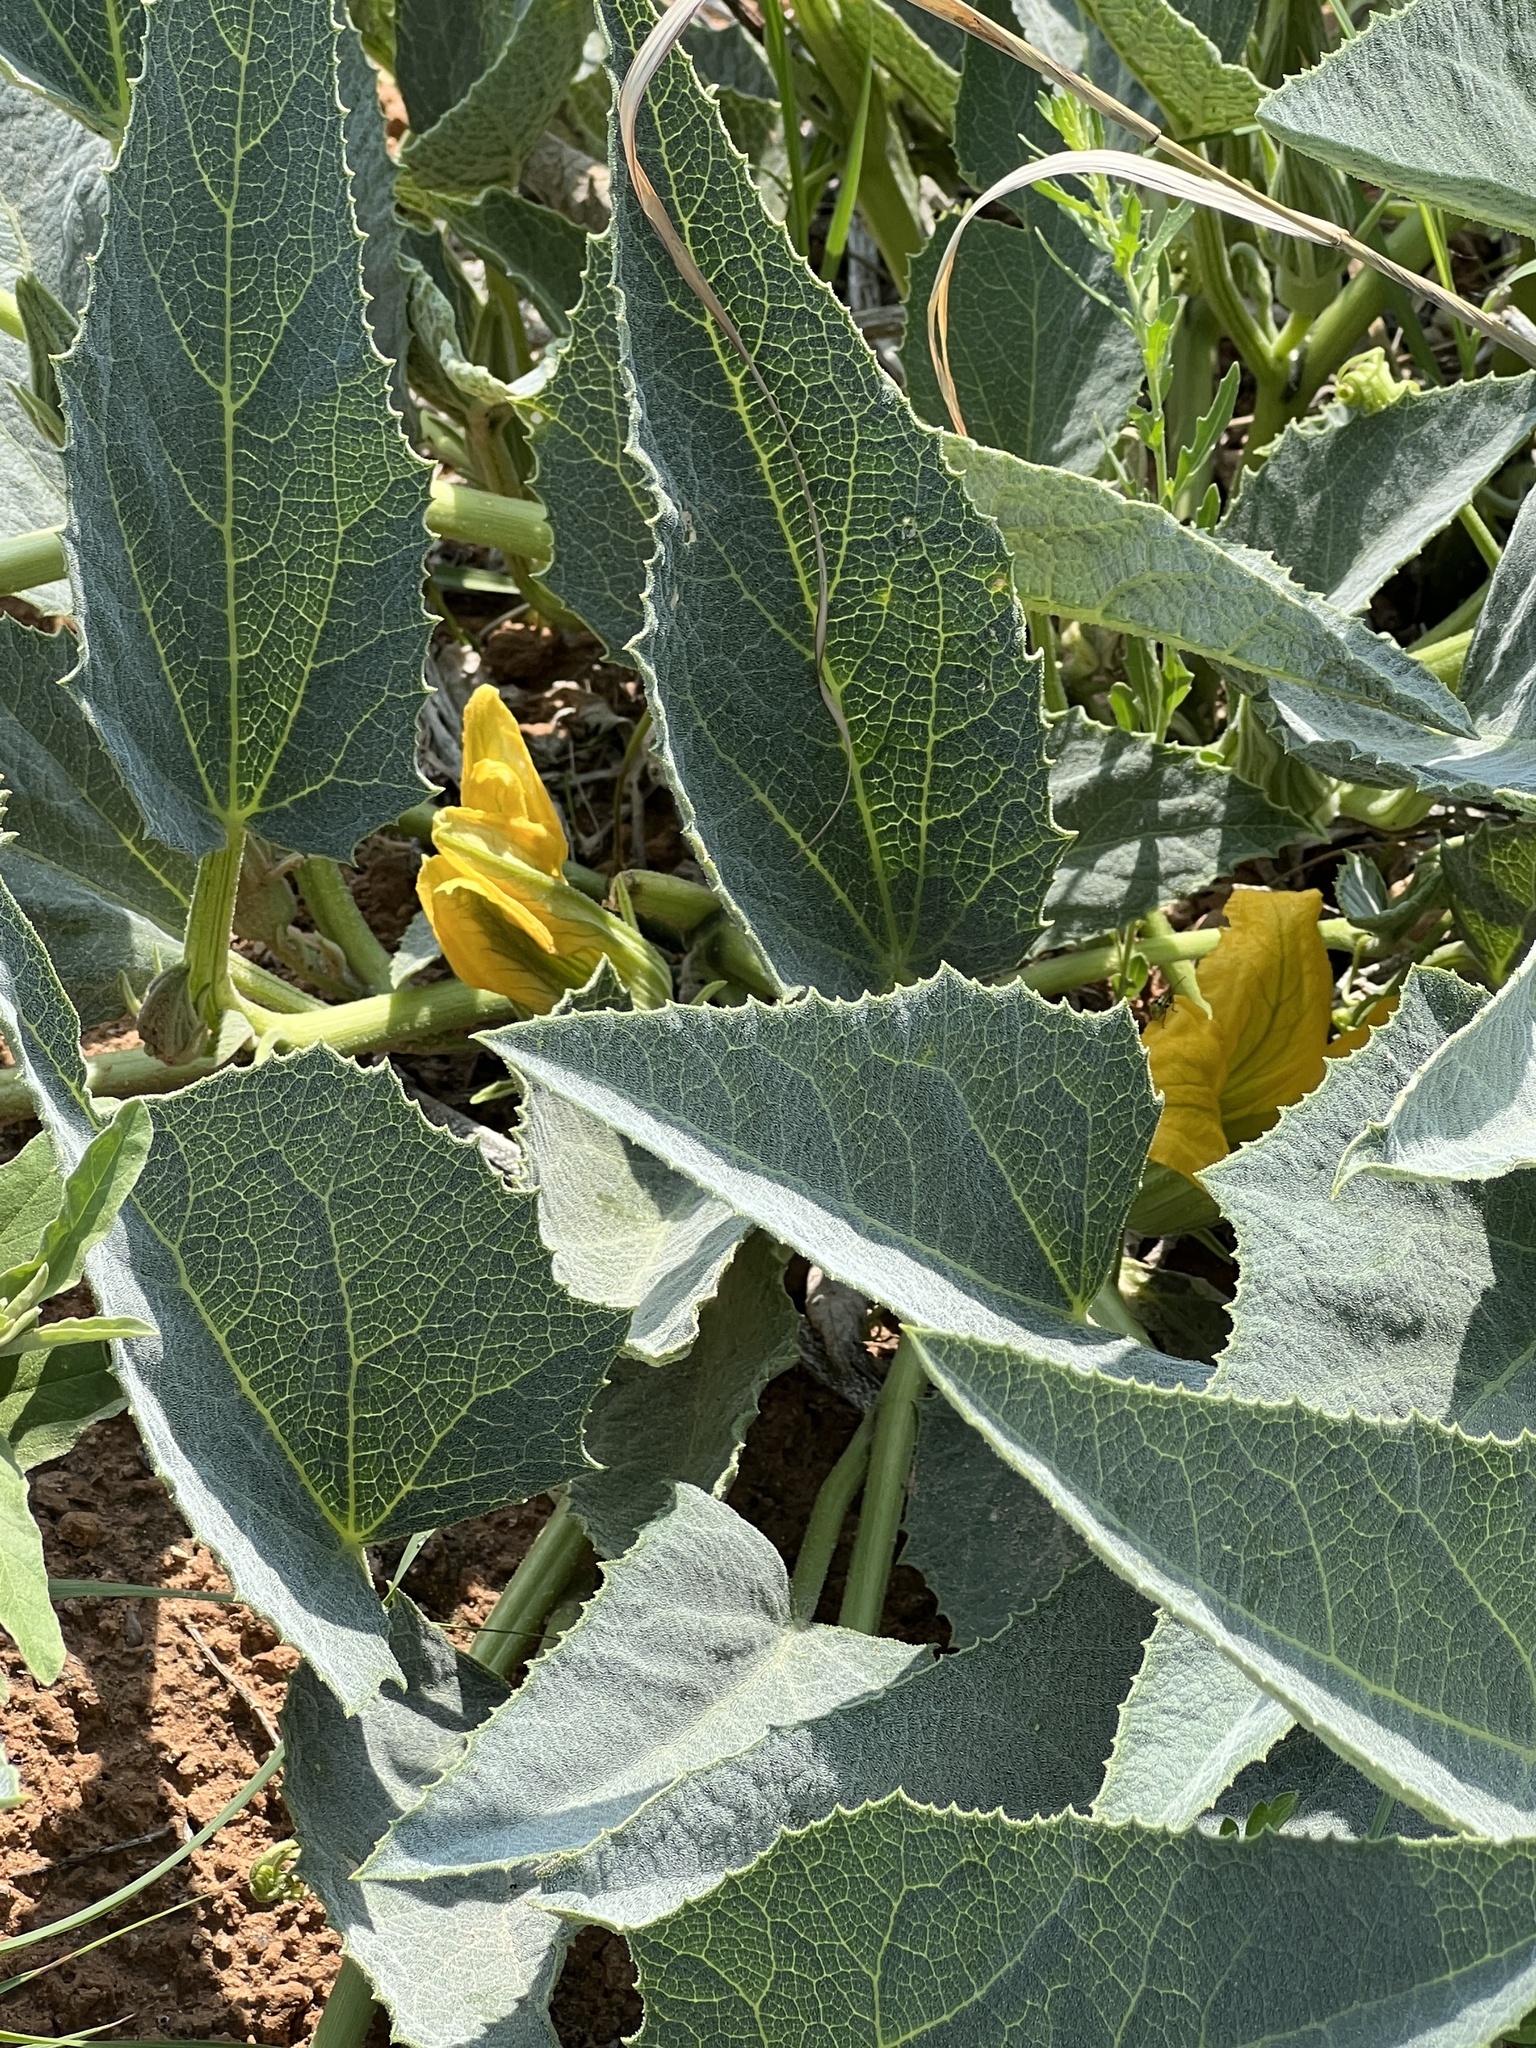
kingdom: Plantae
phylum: Tracheophyta
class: Magnoliopsida
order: Cucurbitales
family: Cucurbitaceae
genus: Cucurbita
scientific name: Cucurbita foetidissima
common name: Buffalo gourd
